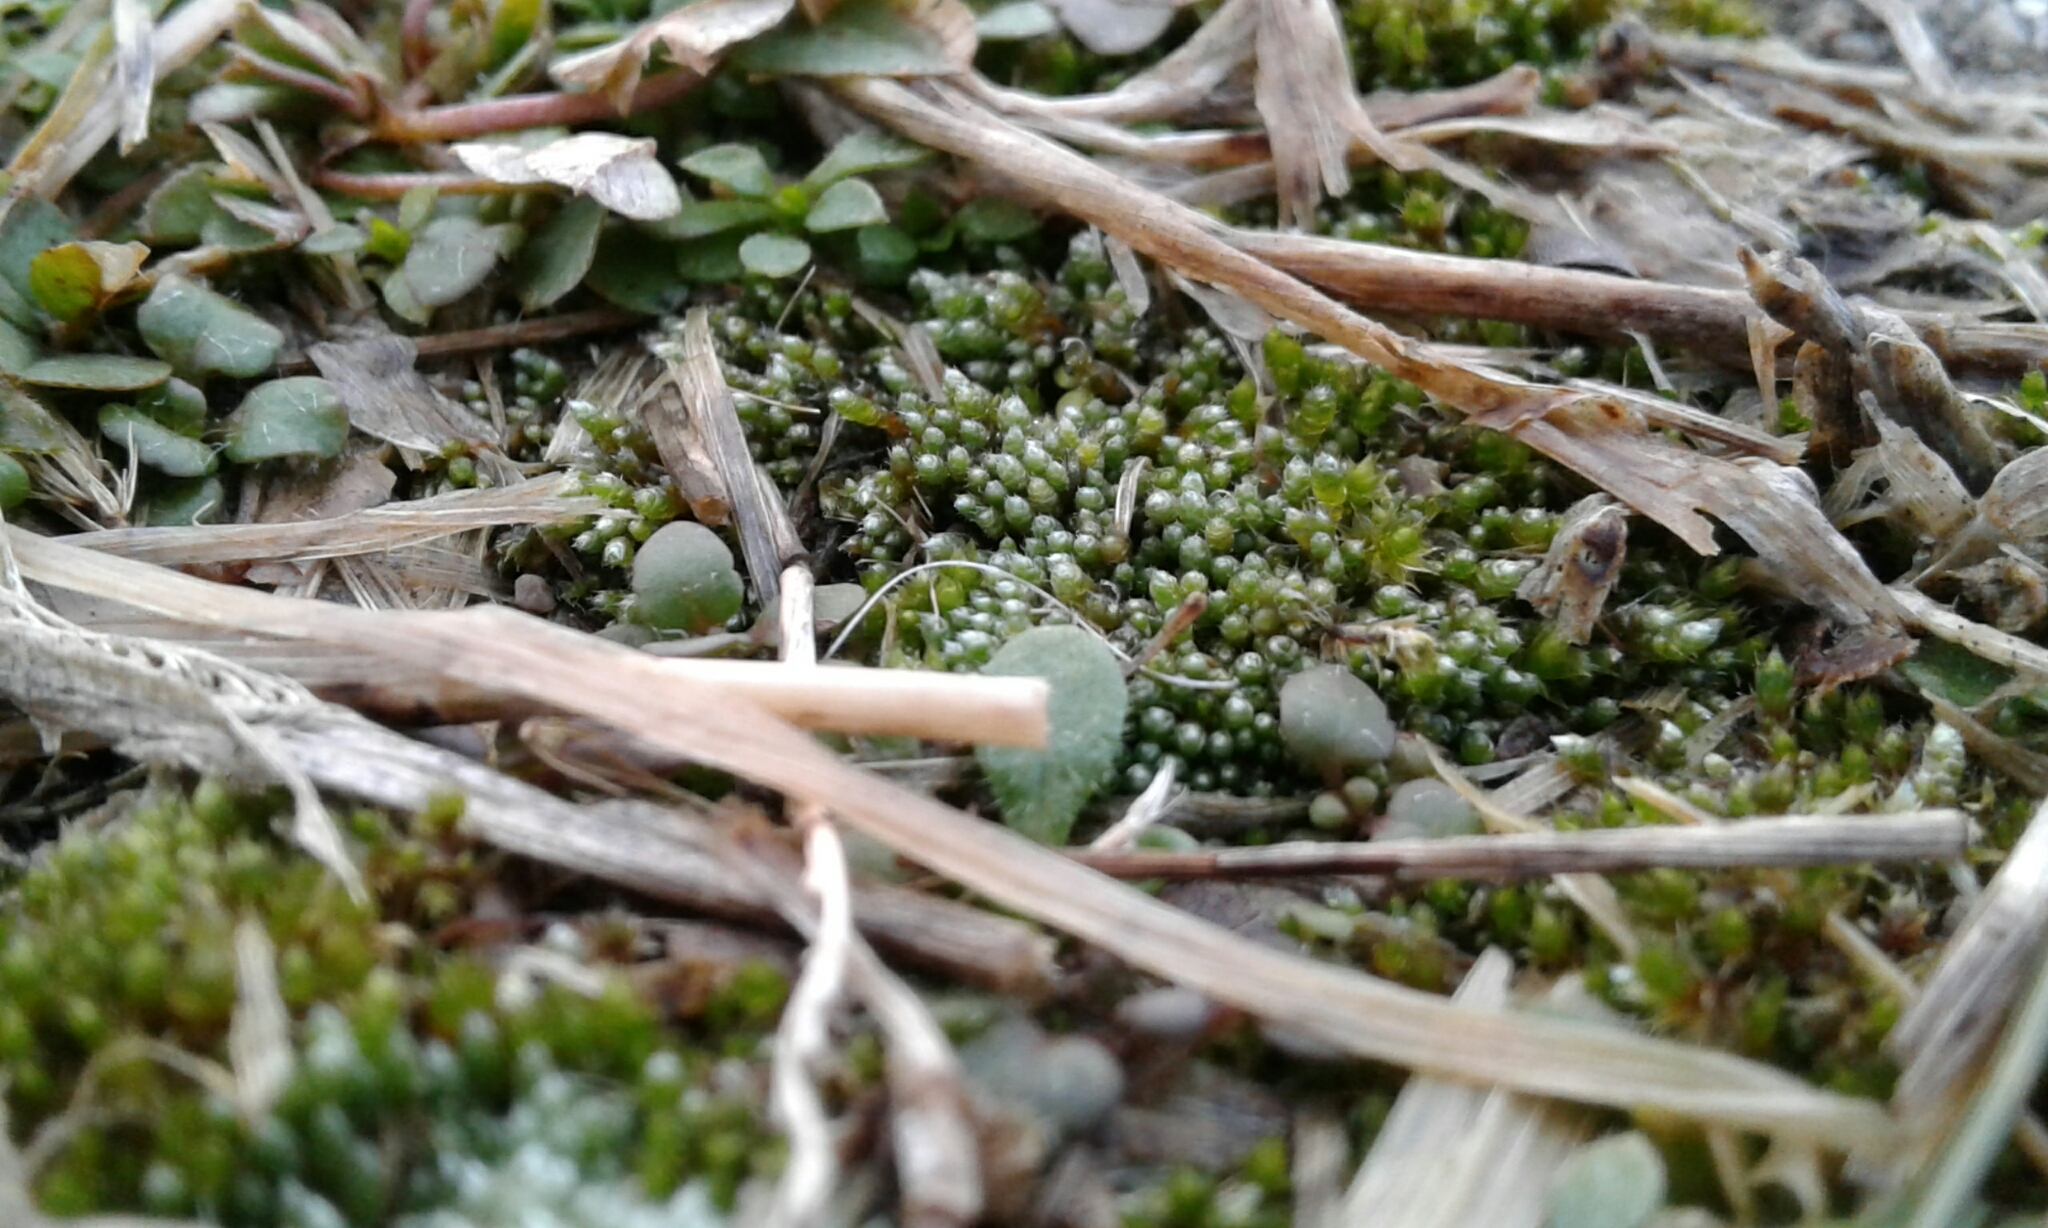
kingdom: Plantae
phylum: Bryophyta
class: Bryopsida
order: Bryales
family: Bryaceae
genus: Bryum
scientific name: Bryum argenteum
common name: Silver-moss
